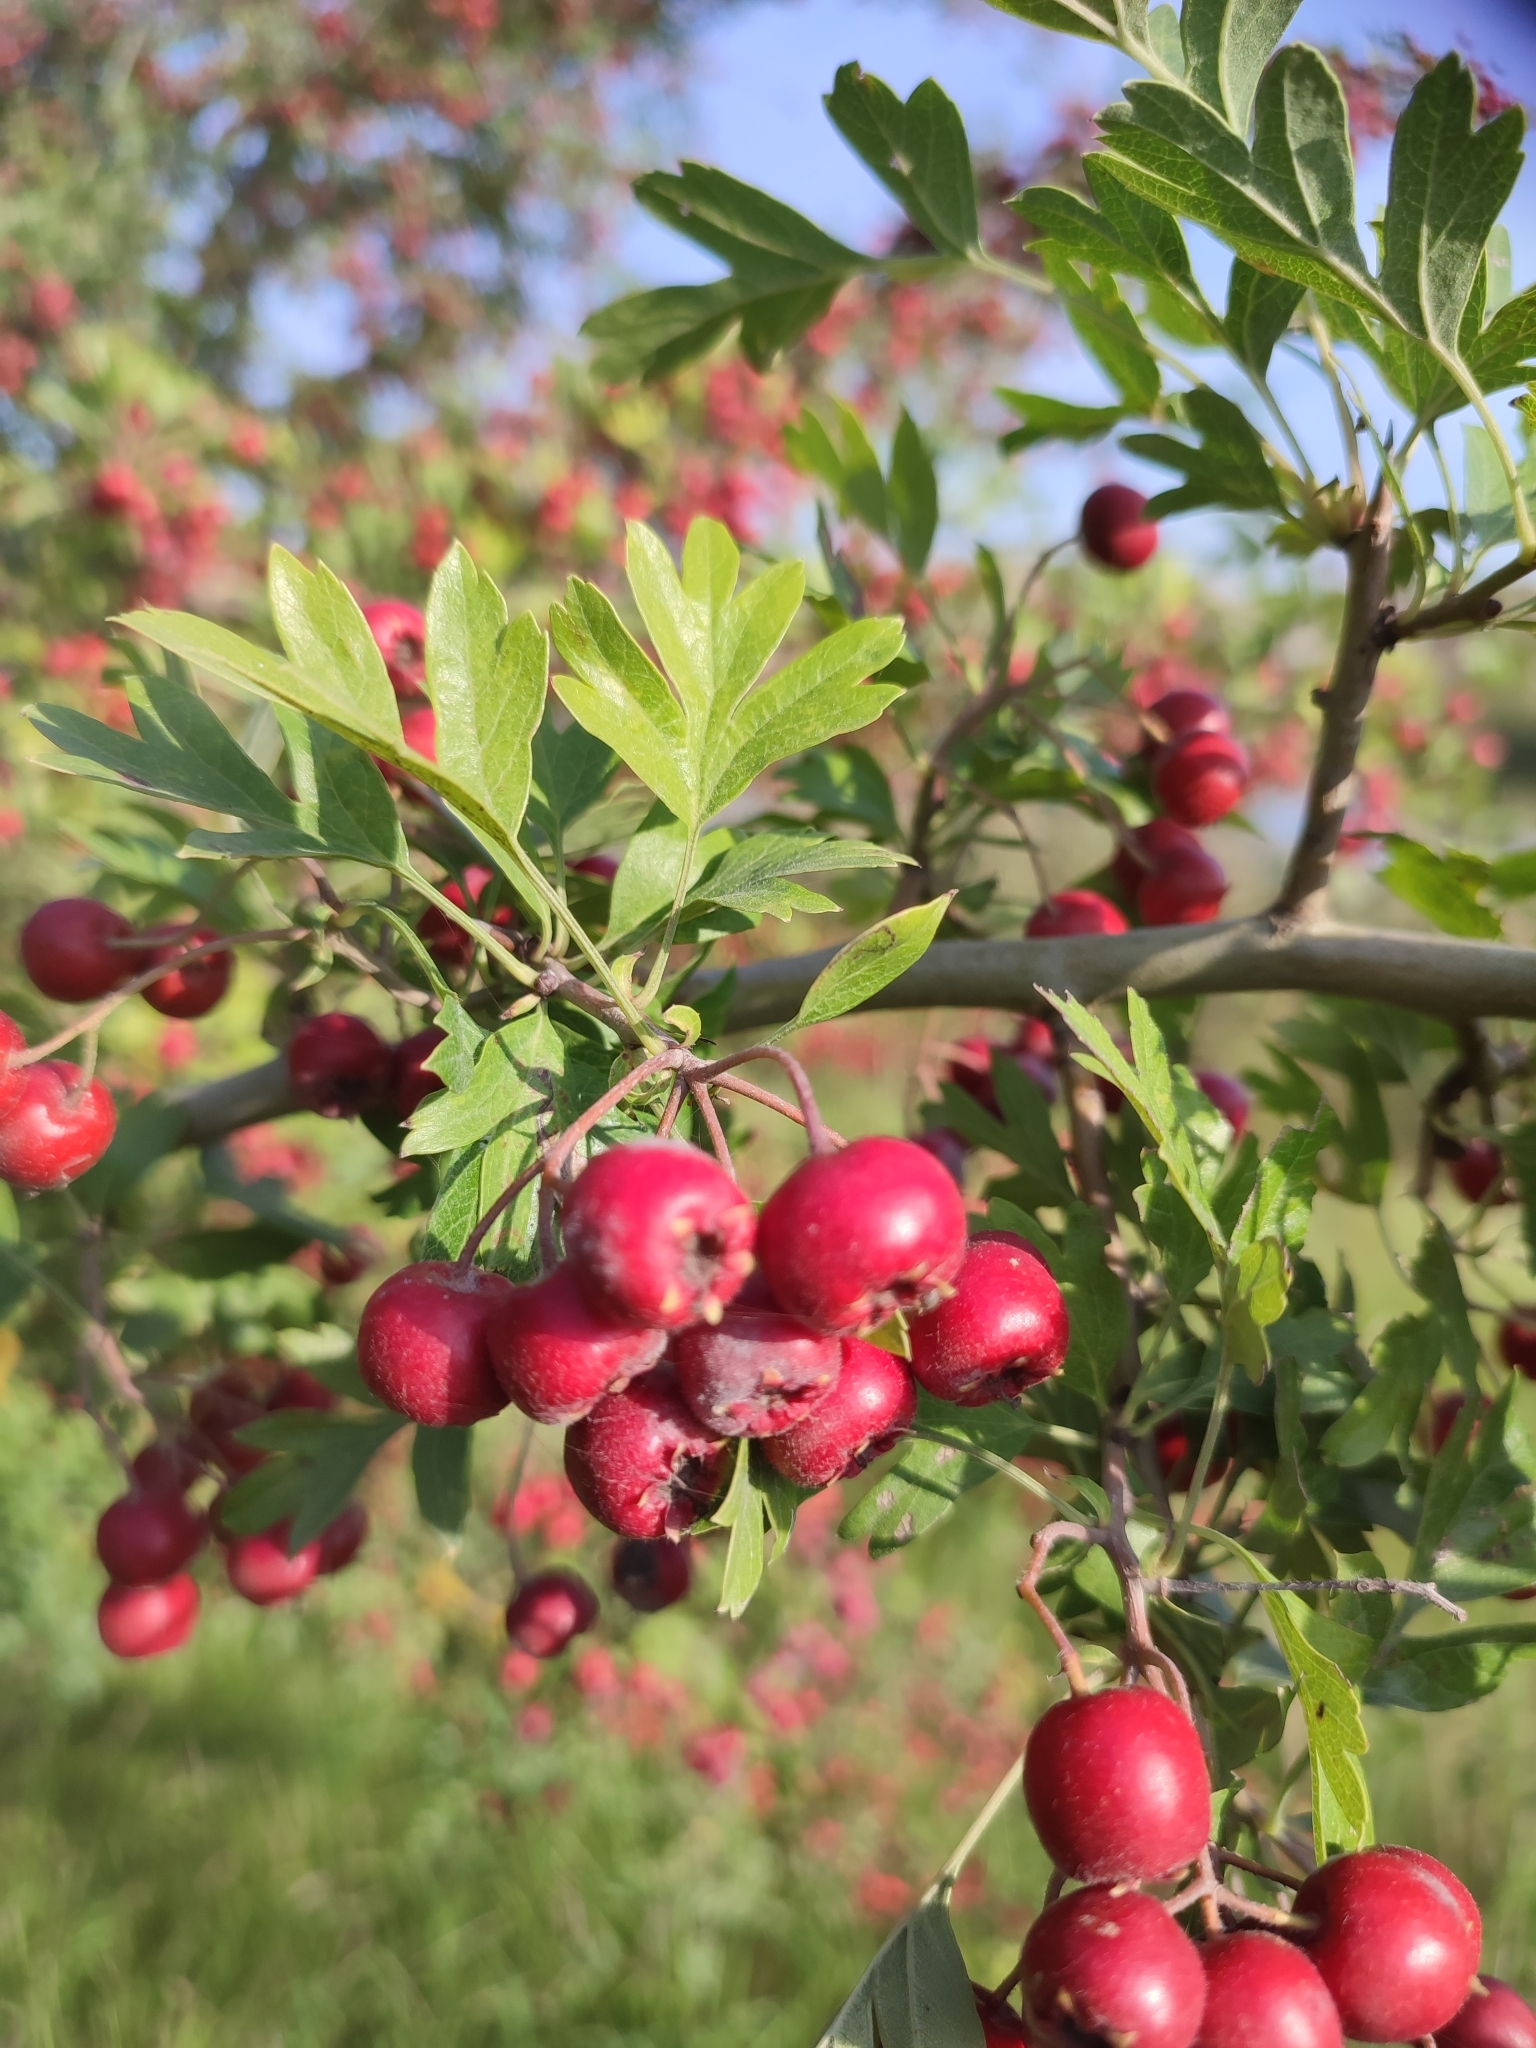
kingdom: Plantae
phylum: Tracheophyta
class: Magnoliopsida
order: Rosales
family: Rosaceae
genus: Crataegus
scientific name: Crataegus monogyna
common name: Hawthorn
